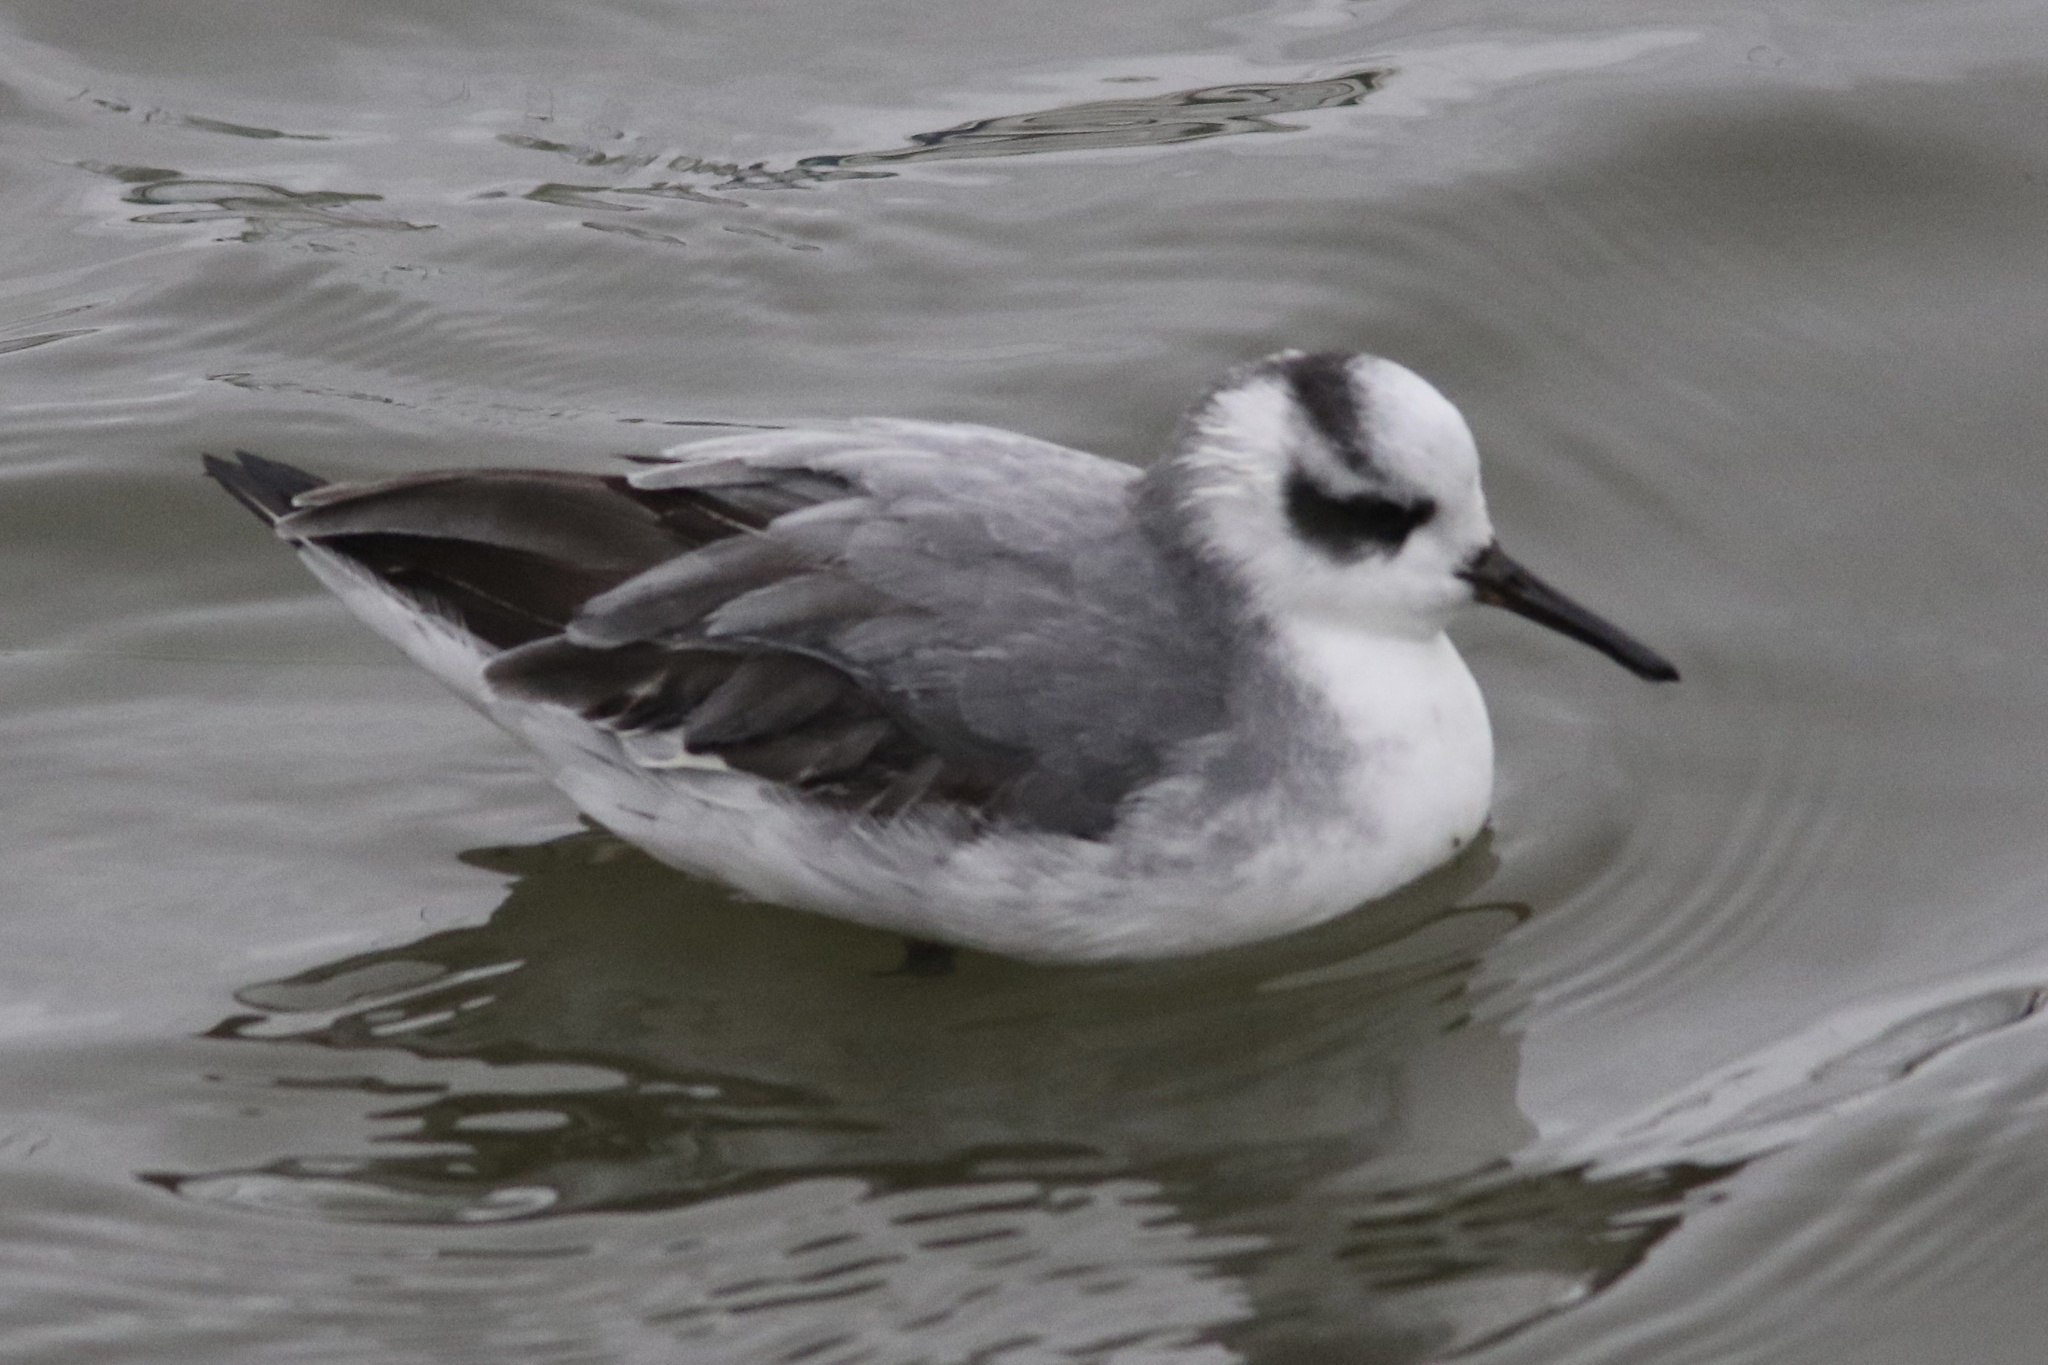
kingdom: Animalia
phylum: Chordata
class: Aves
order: Charadriiformes
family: Scolopacidae
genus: Phalaropus
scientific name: Phalaropus fulicarius
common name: Red phalarope
